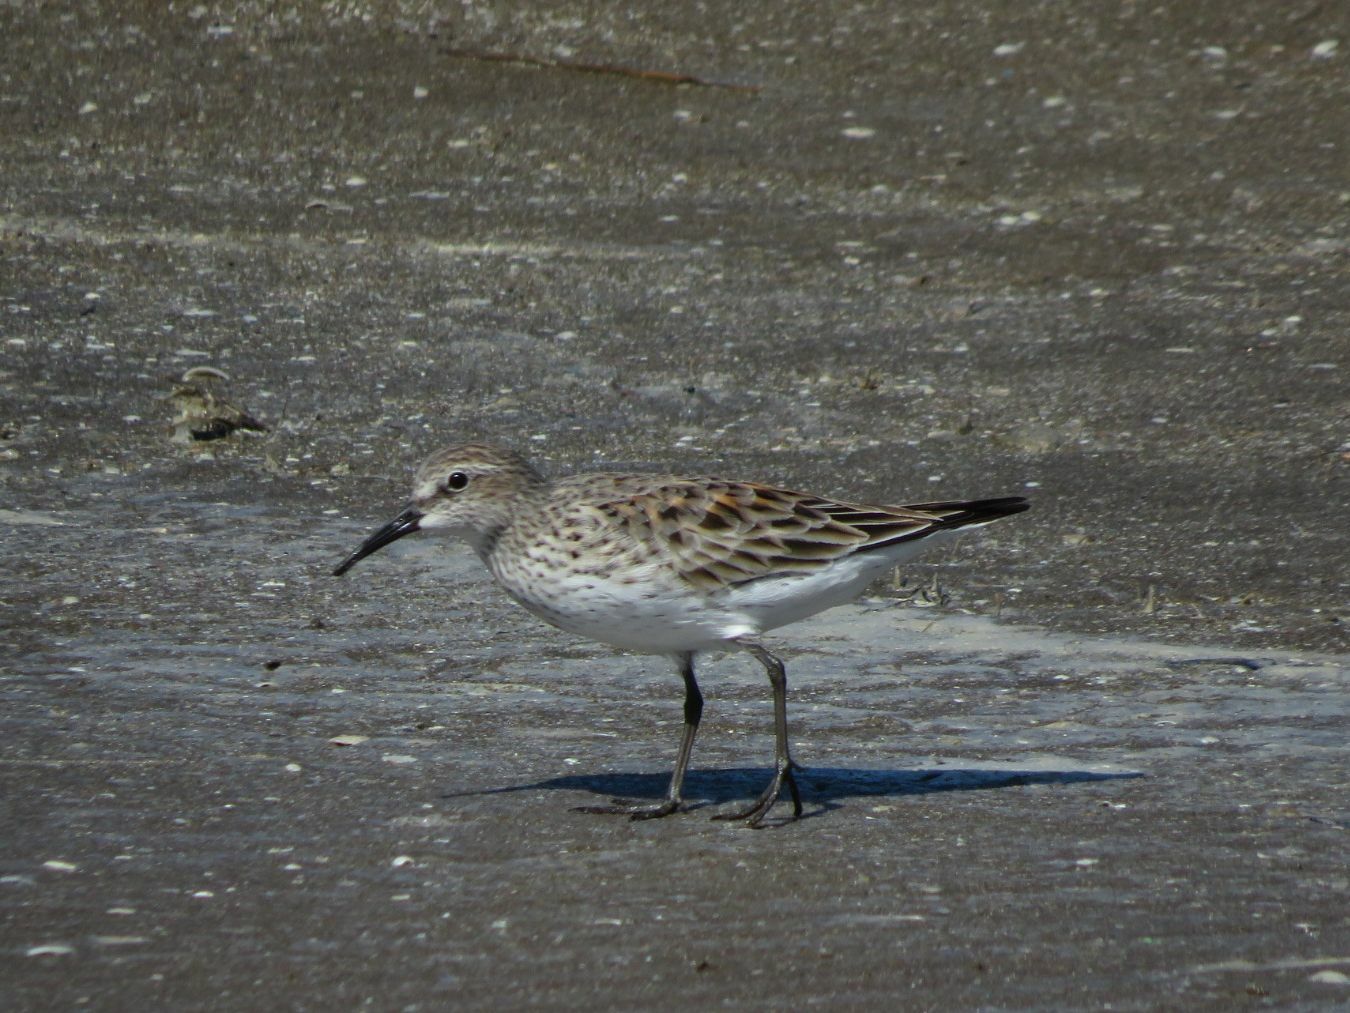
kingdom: Animalia
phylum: Chordata
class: Aves
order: Charadriiformes
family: Scolopacidae
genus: Calidris
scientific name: Calidris fuscicollis
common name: White-rumped sandpiper
